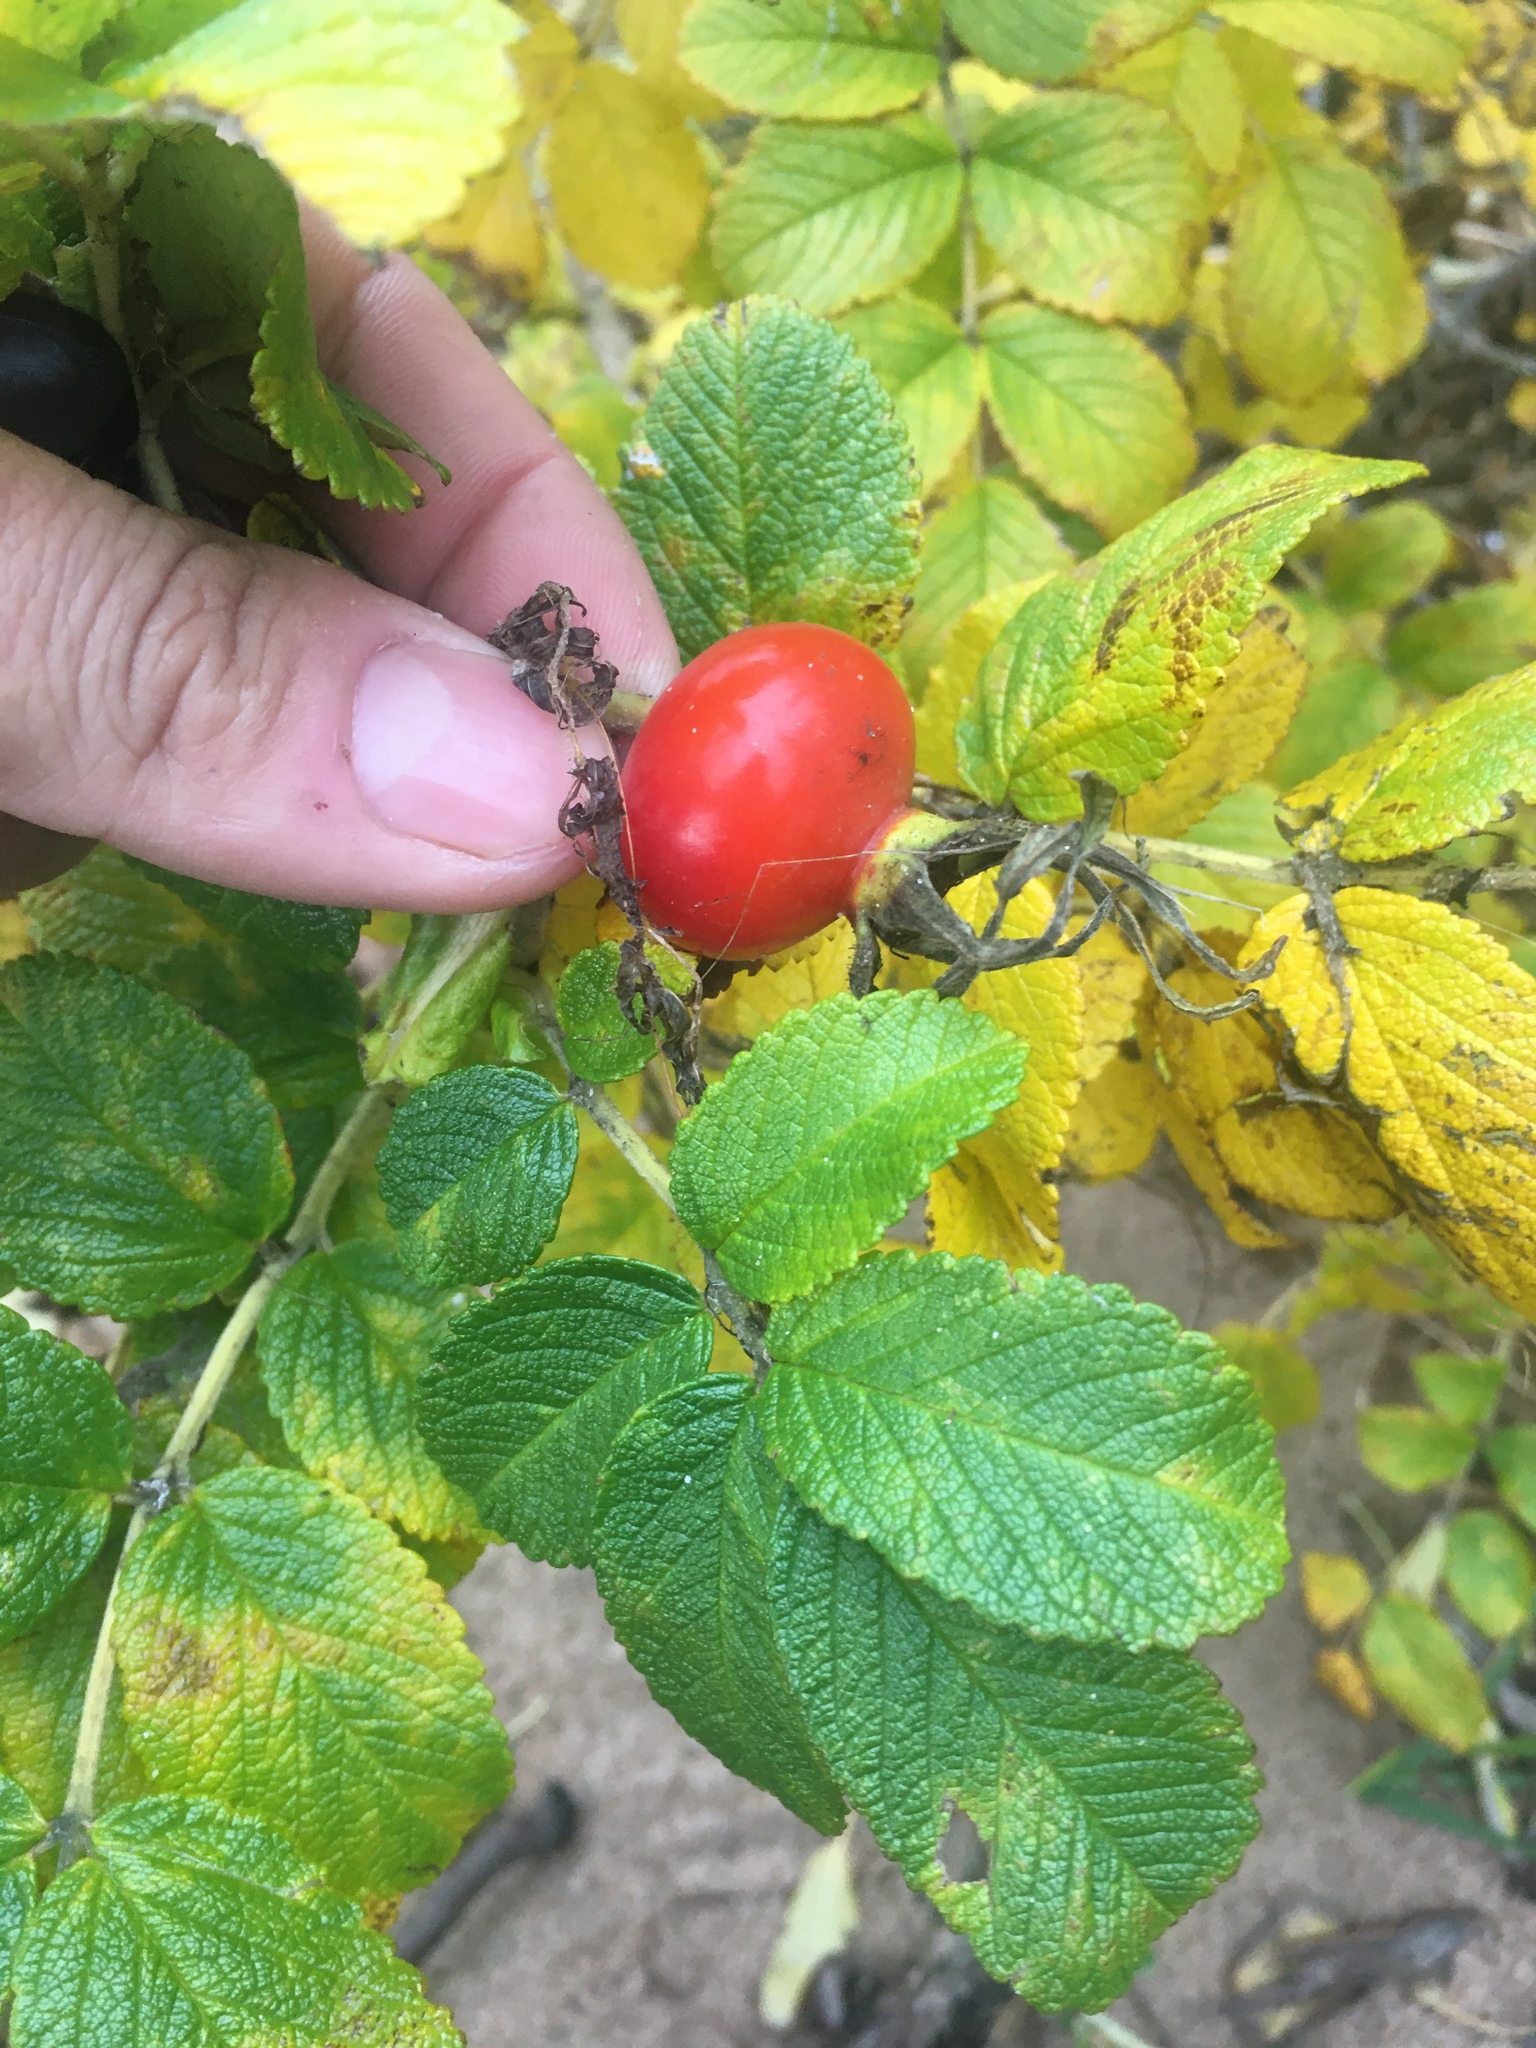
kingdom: Plantae
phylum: Tracheophyta
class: Magnoliopsida
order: Rosales
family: Rosaceae
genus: Rosa
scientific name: Rosa rugosa
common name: Japanese rose
